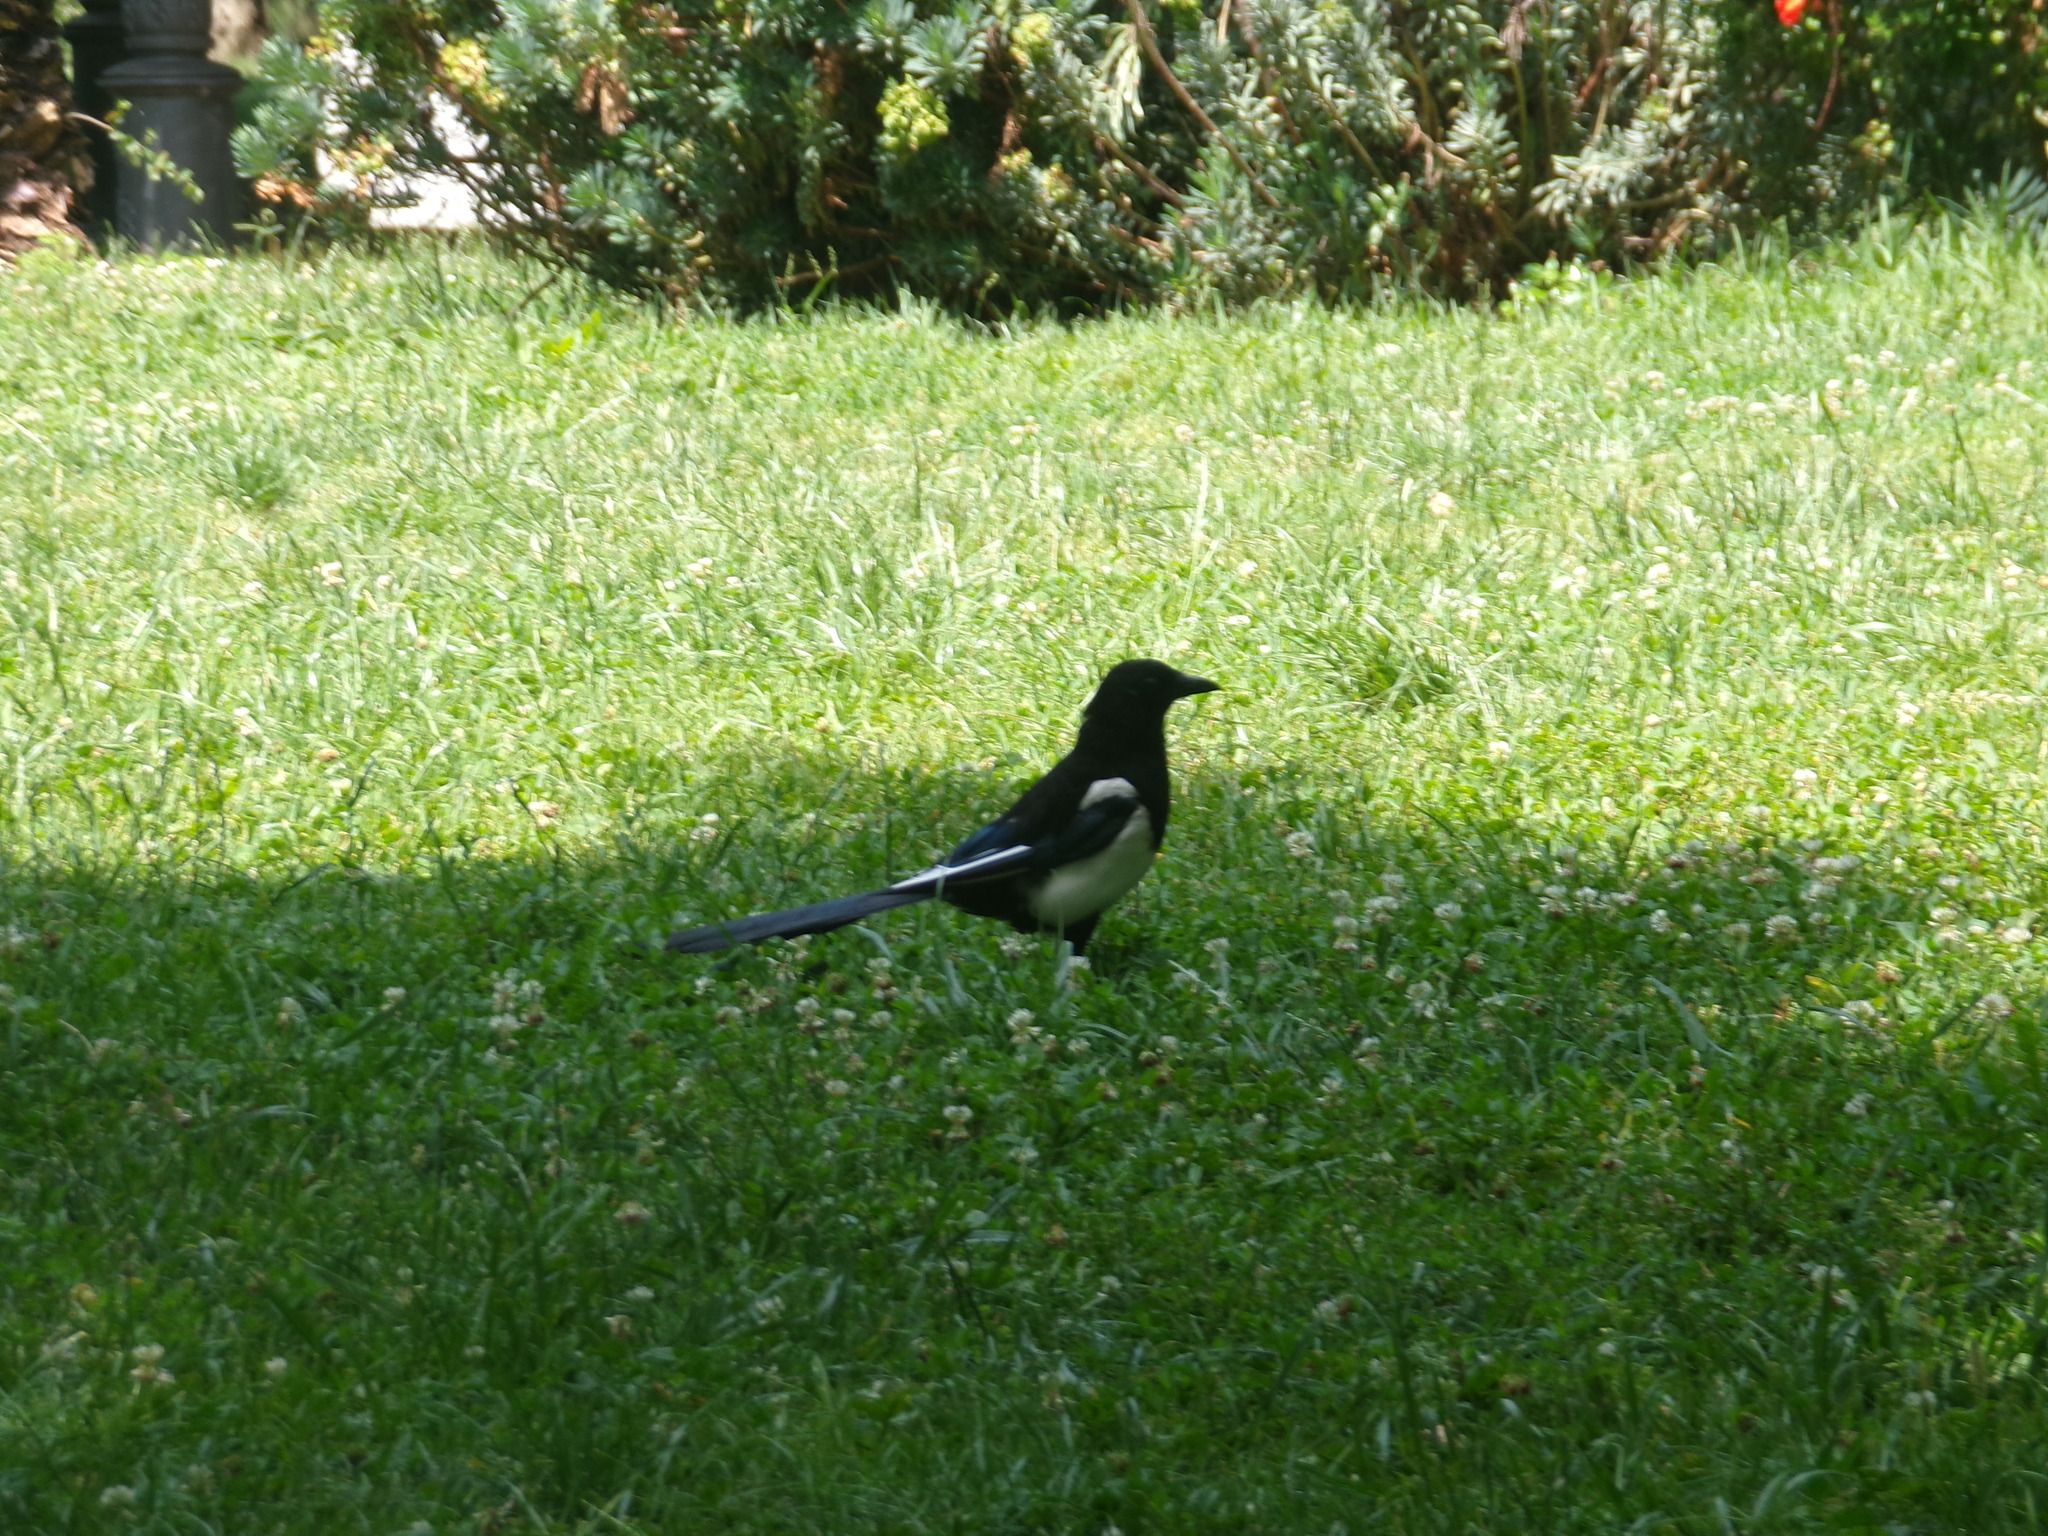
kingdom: Animalia
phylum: Chordata
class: Aves
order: Passeriformes
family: Corvidae
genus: Pica
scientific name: Pica pica
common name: Eurasian magpie
